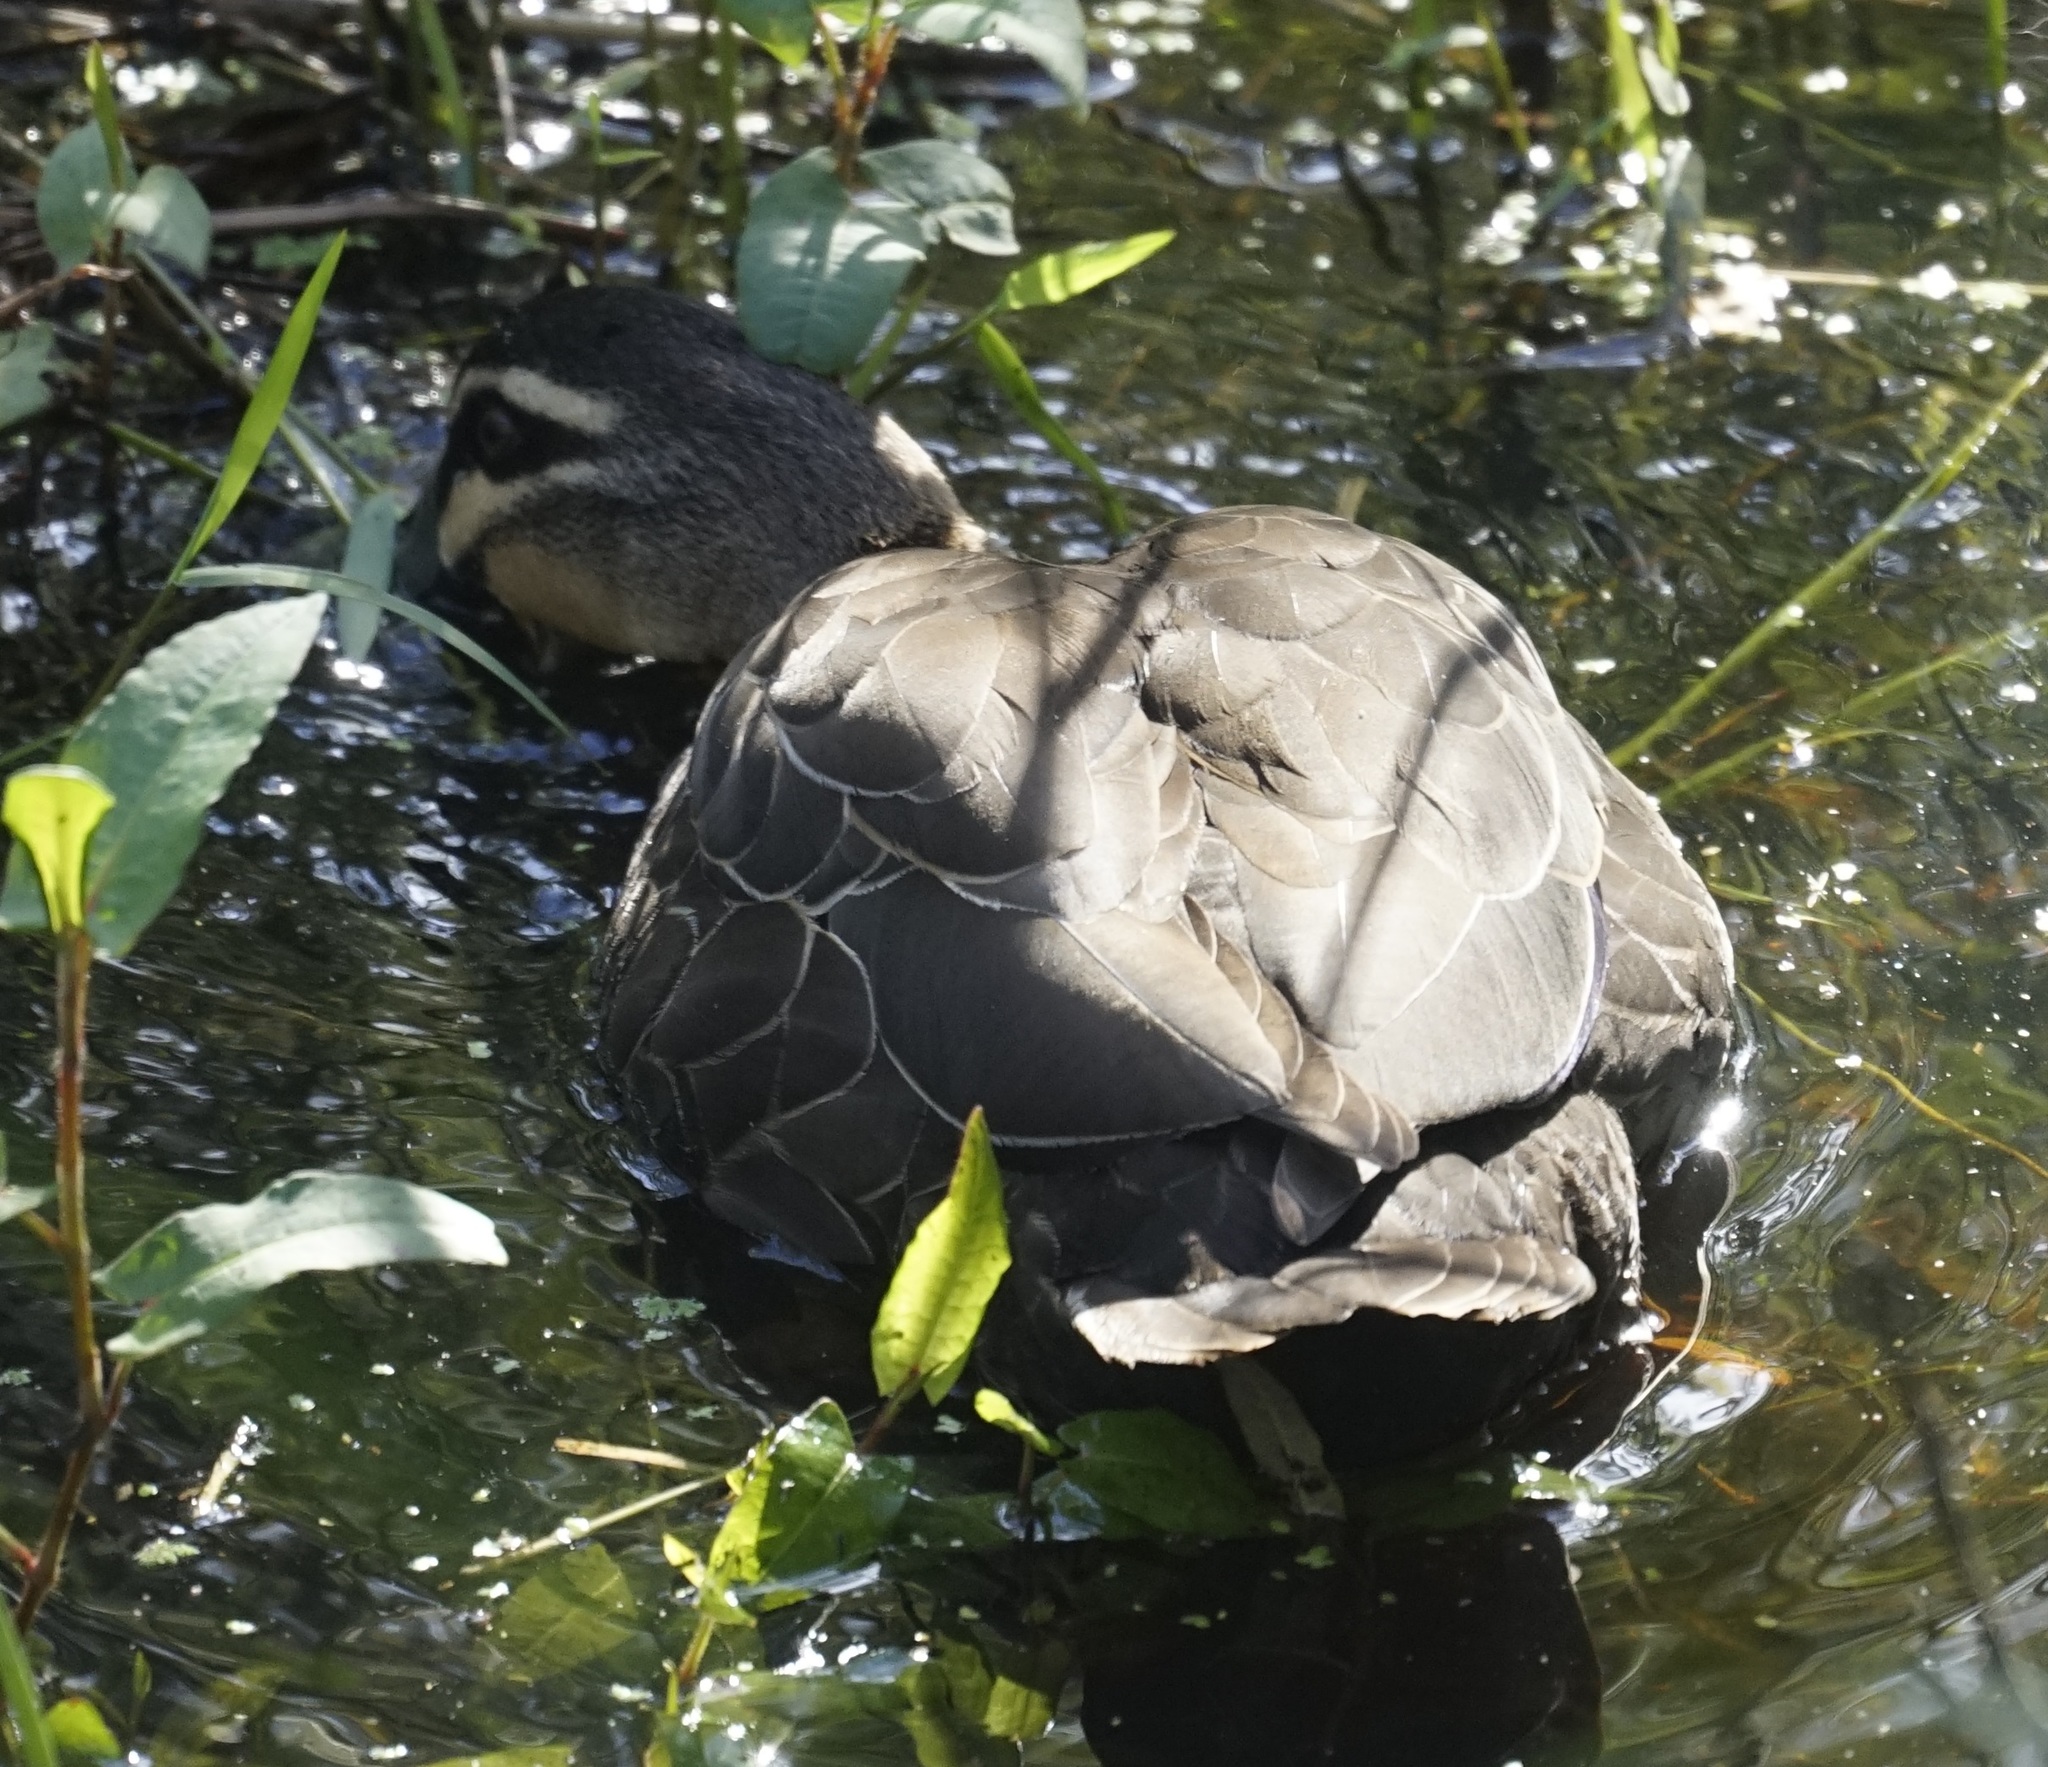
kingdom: Animalia
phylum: Chordata
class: Aves
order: Anseriformes
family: Anatidae
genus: Anas
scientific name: Anas superciliosa
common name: Pacific black duck
